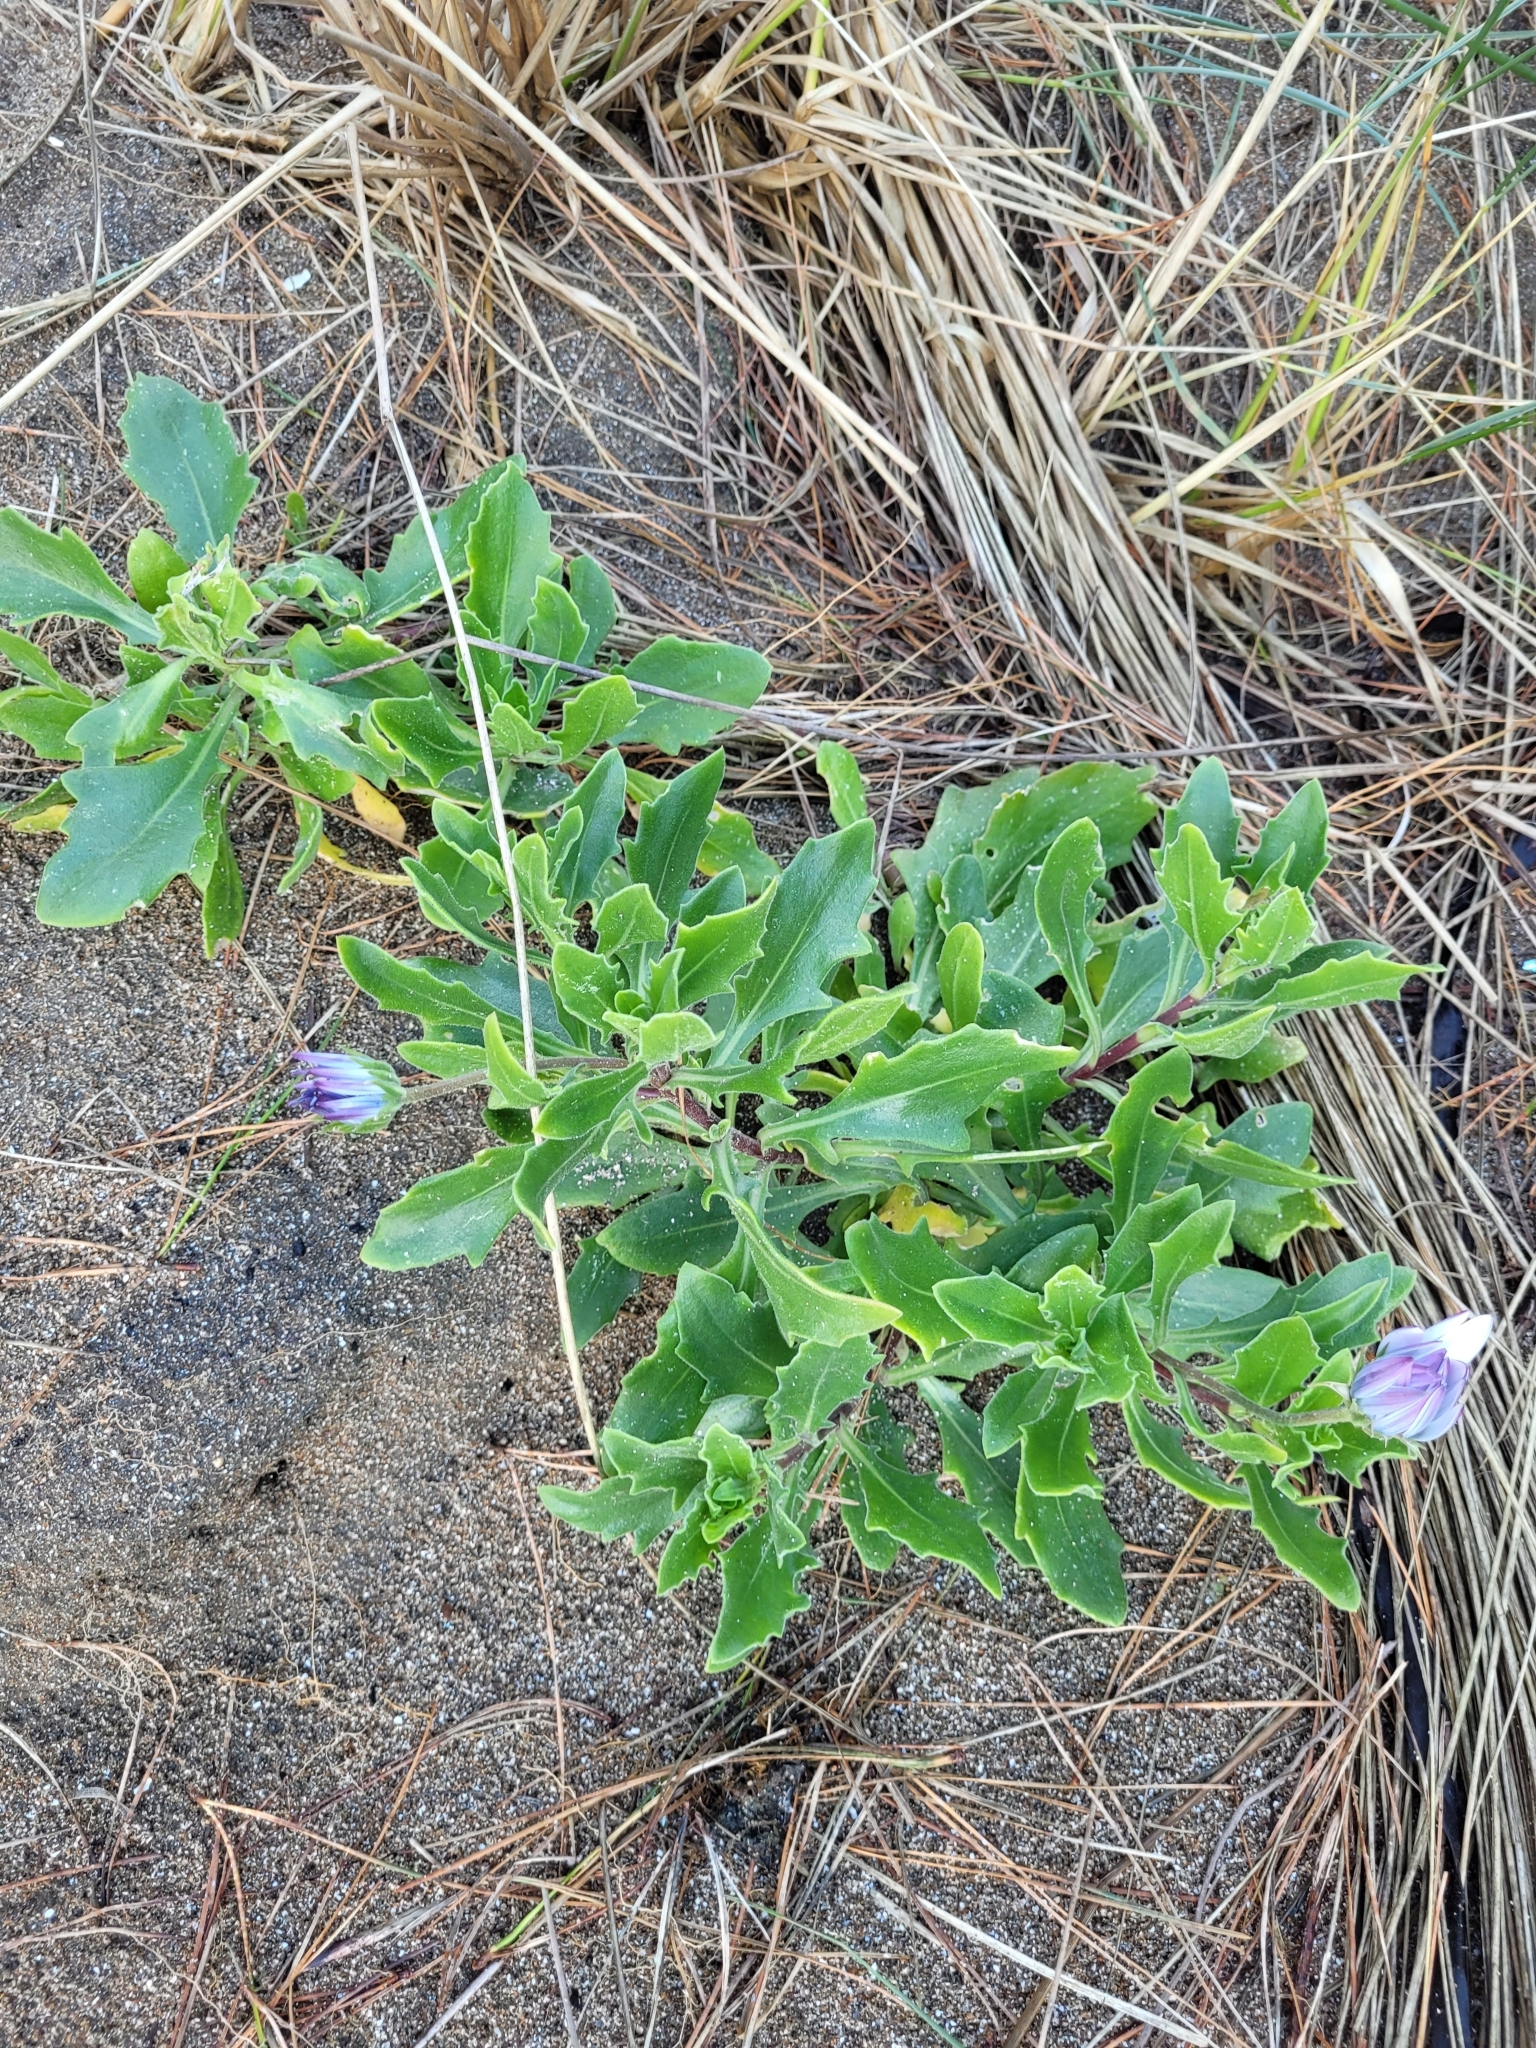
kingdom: Plantae
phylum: Tracheophyta
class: Magnoliopsida
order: Asterales
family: Asteraceae
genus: Dimorphotheca
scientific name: Dimorphotheca fruticosa
